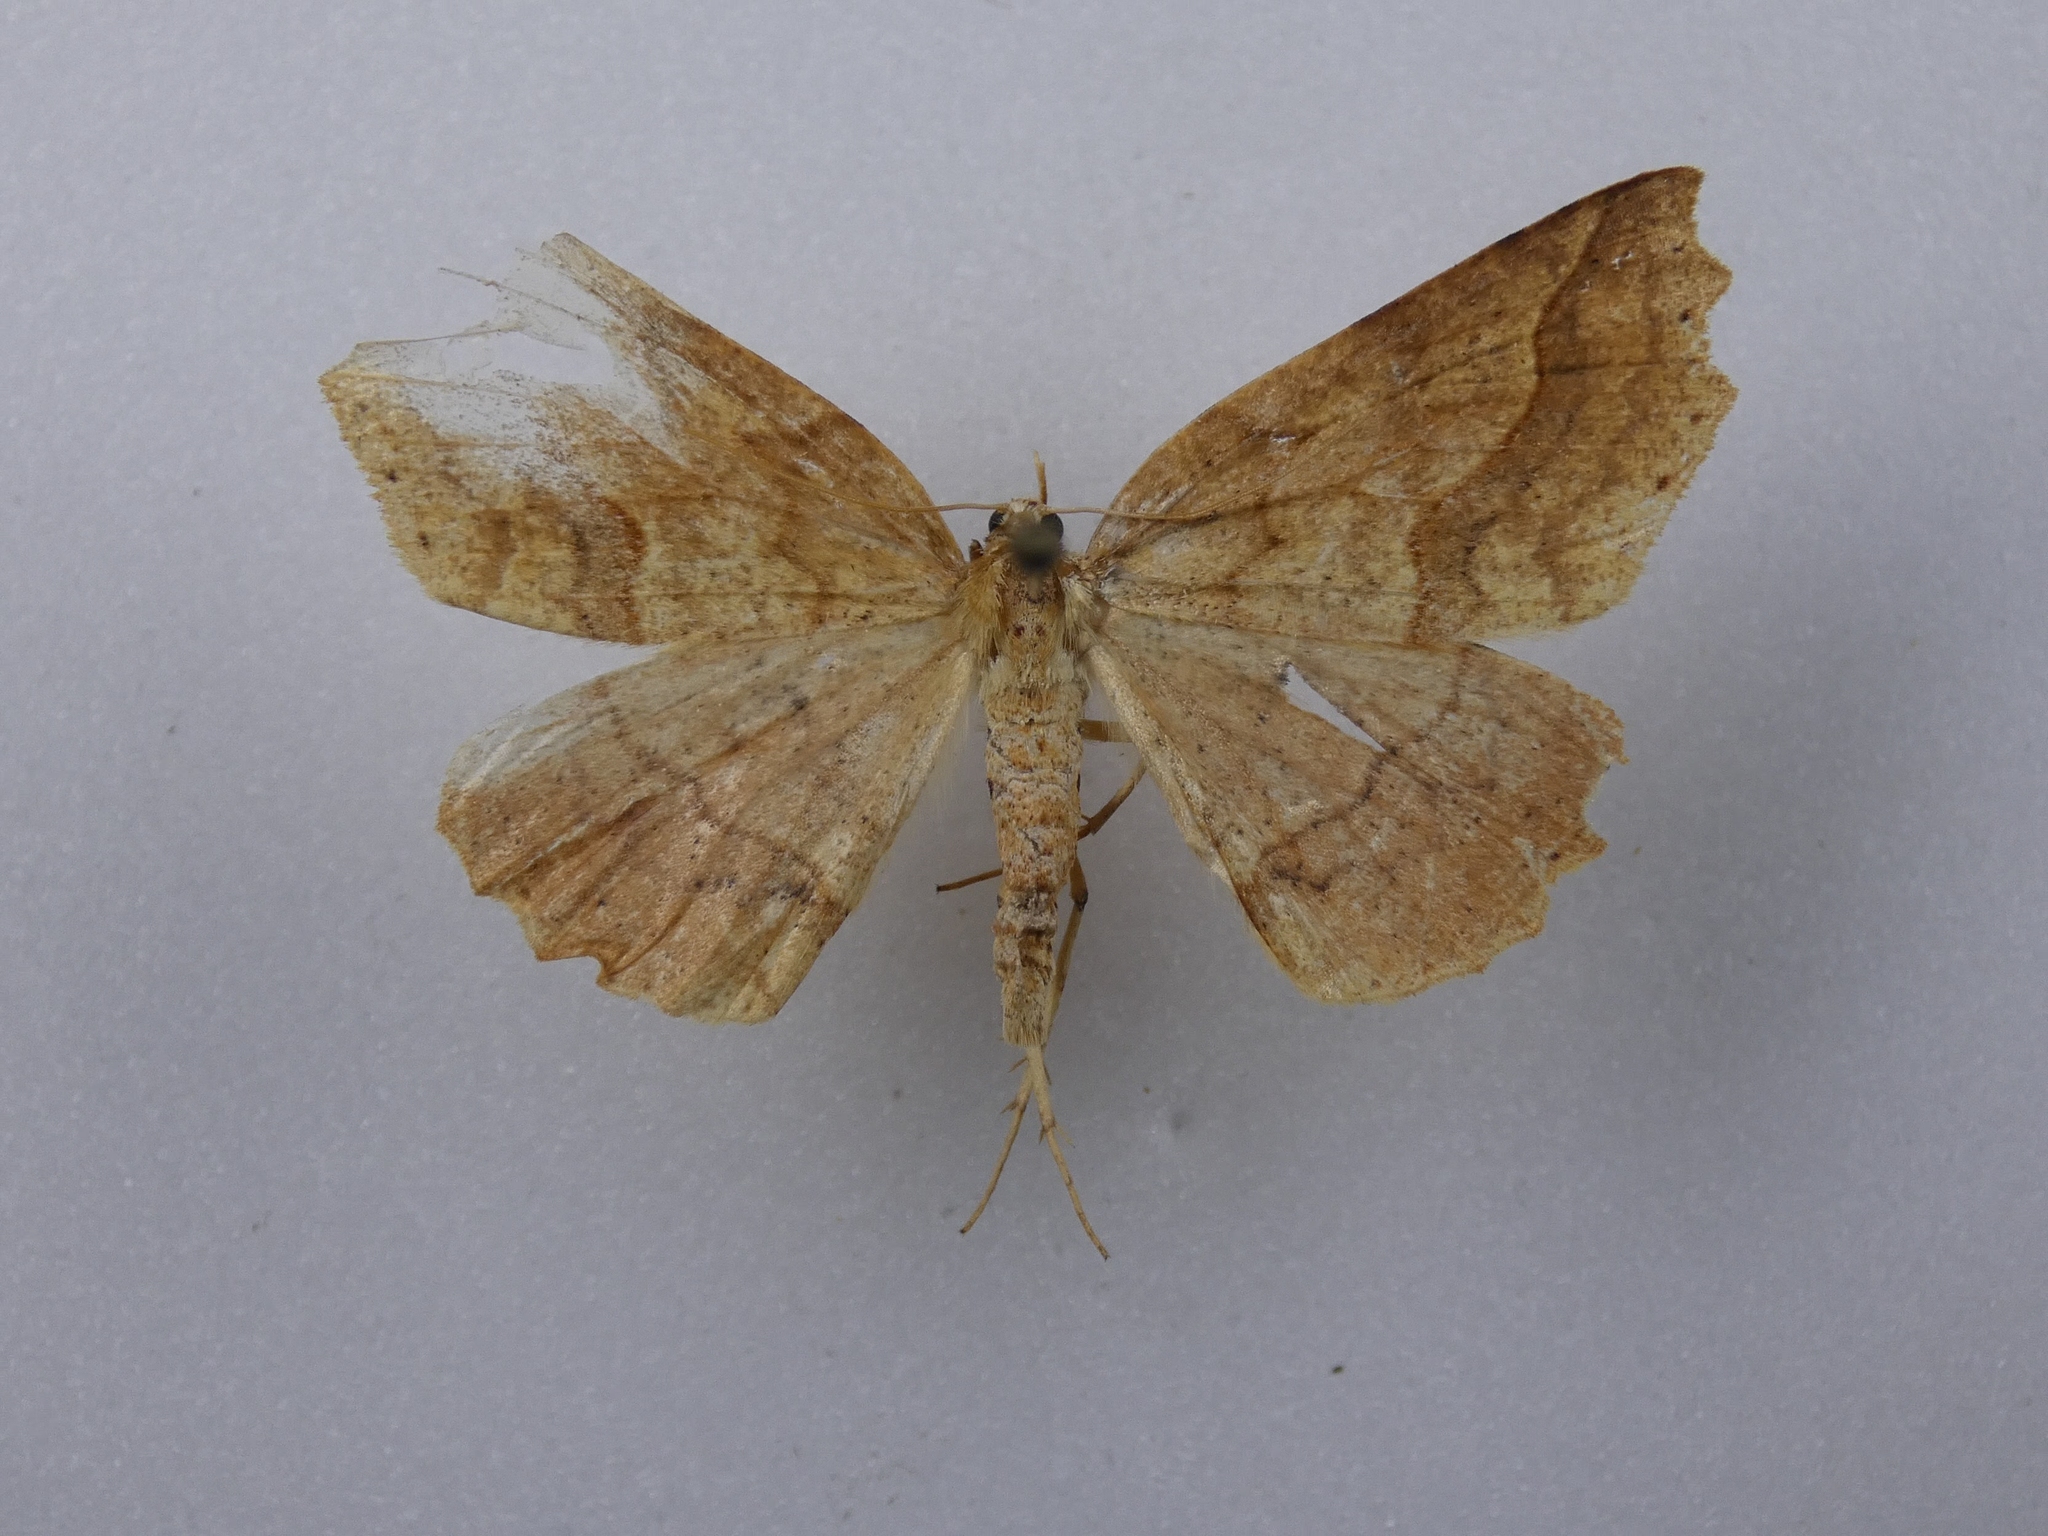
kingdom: Animalia
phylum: Arthropoda
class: Insecta
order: Lepidoptera
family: Geometridae
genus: Ischalis
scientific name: Ischalis variabilis
